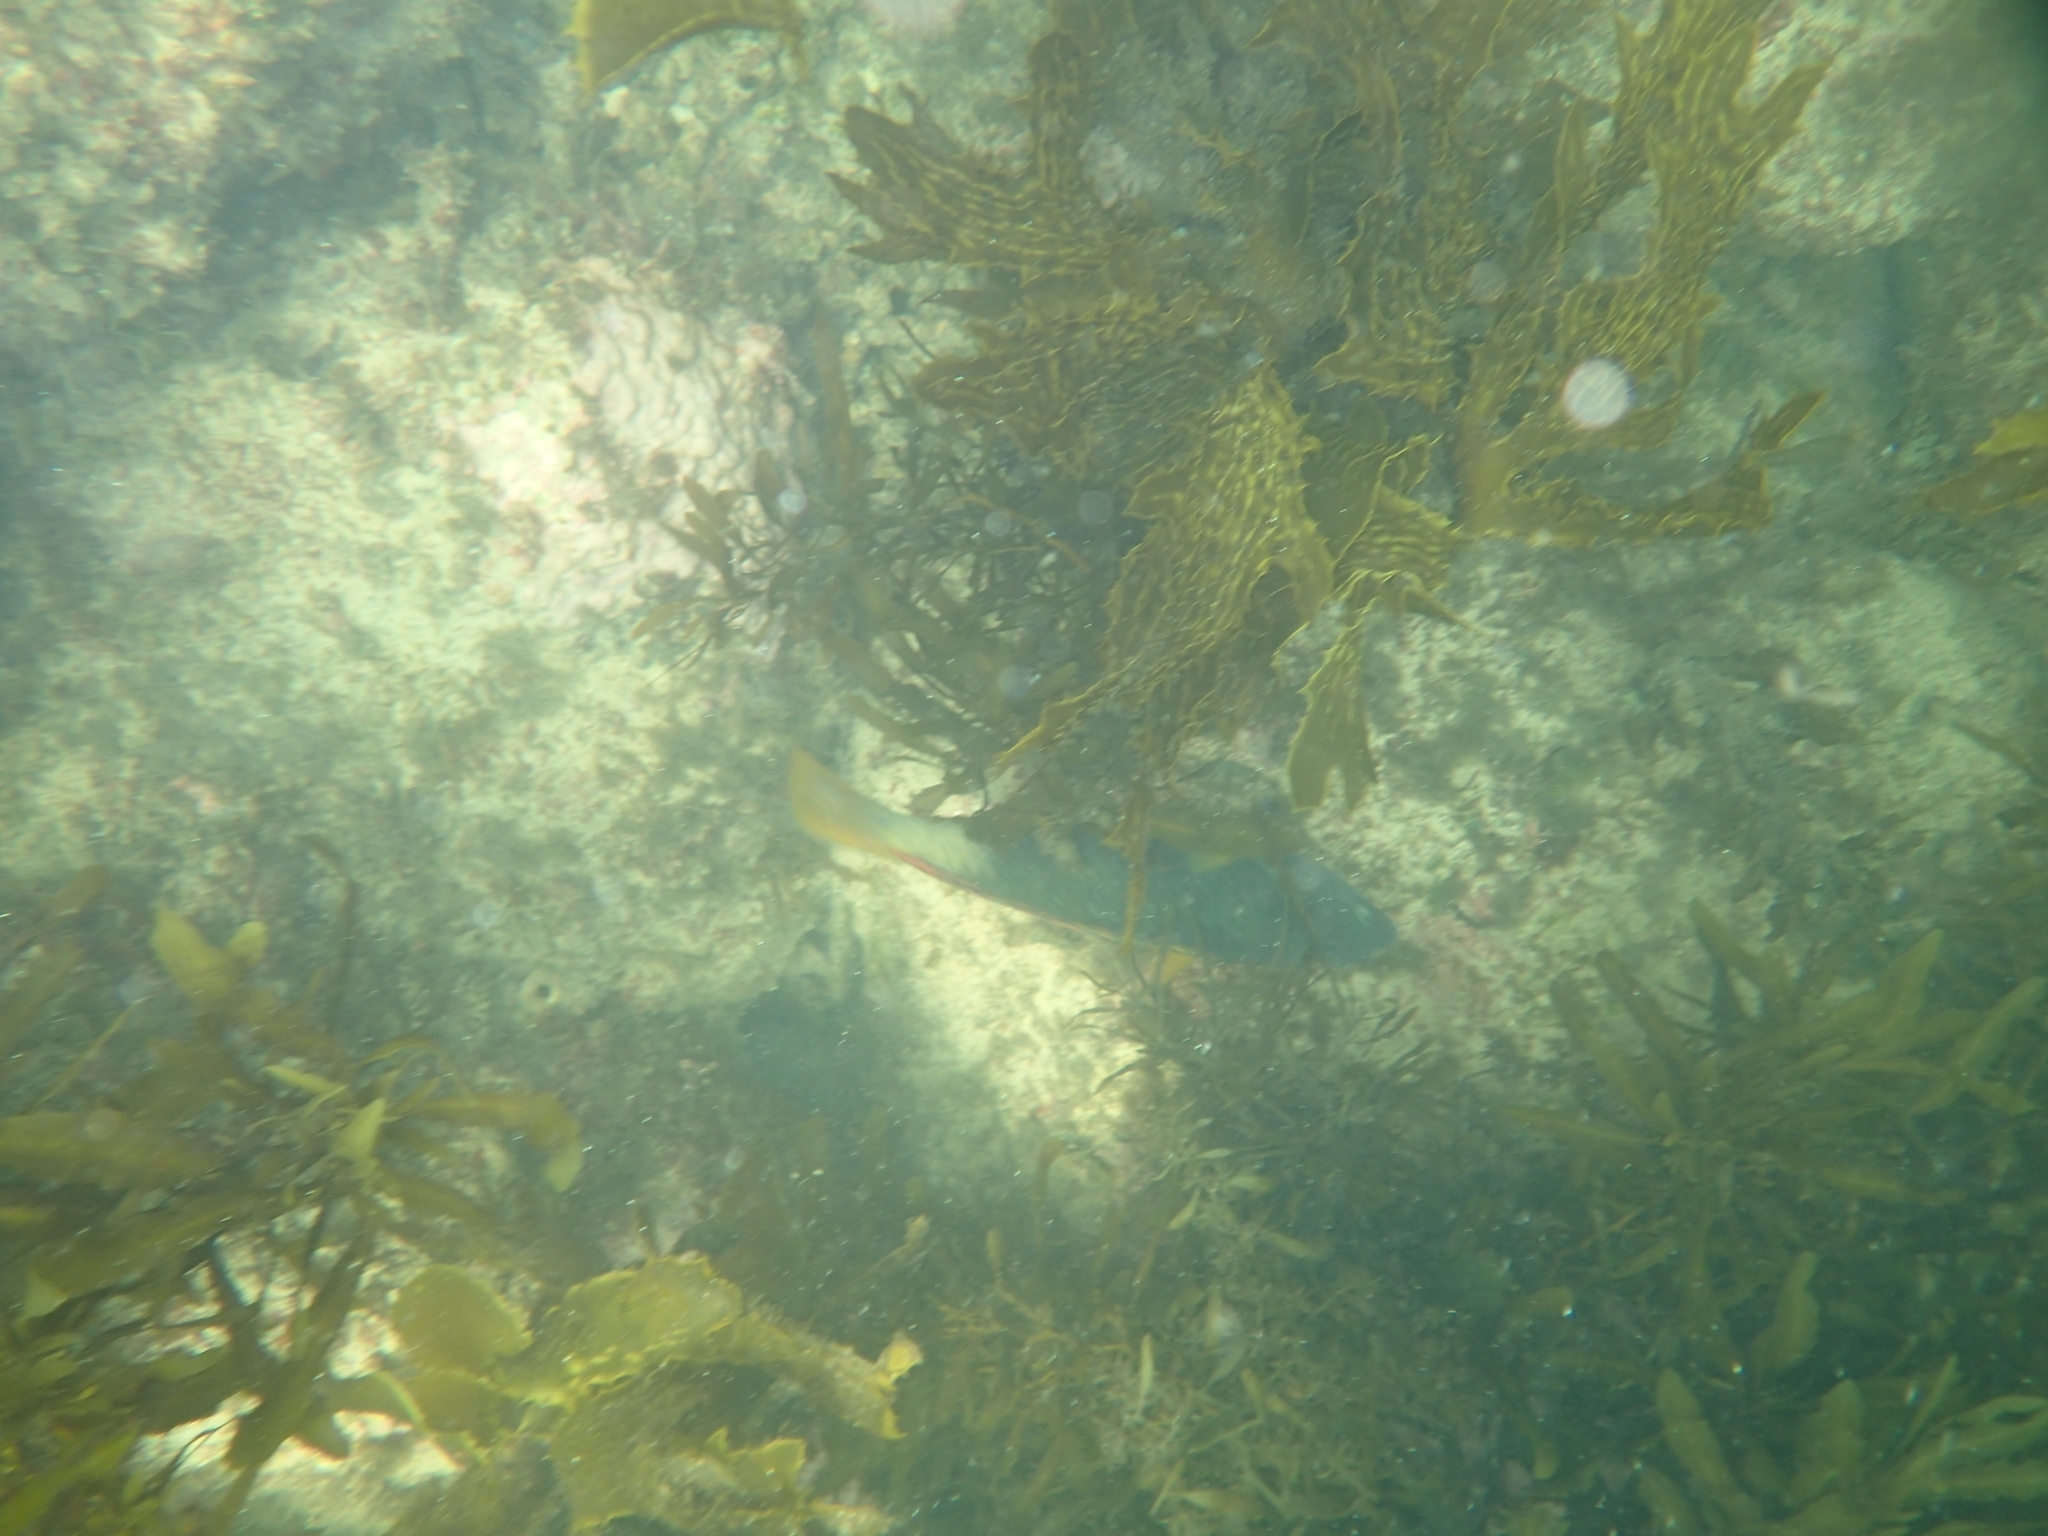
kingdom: Animalia
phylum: Chordata
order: Perciformes
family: Labridae
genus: Notolabrus
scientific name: Notolabrus gymnogenis
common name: Crimson banded wrasse
